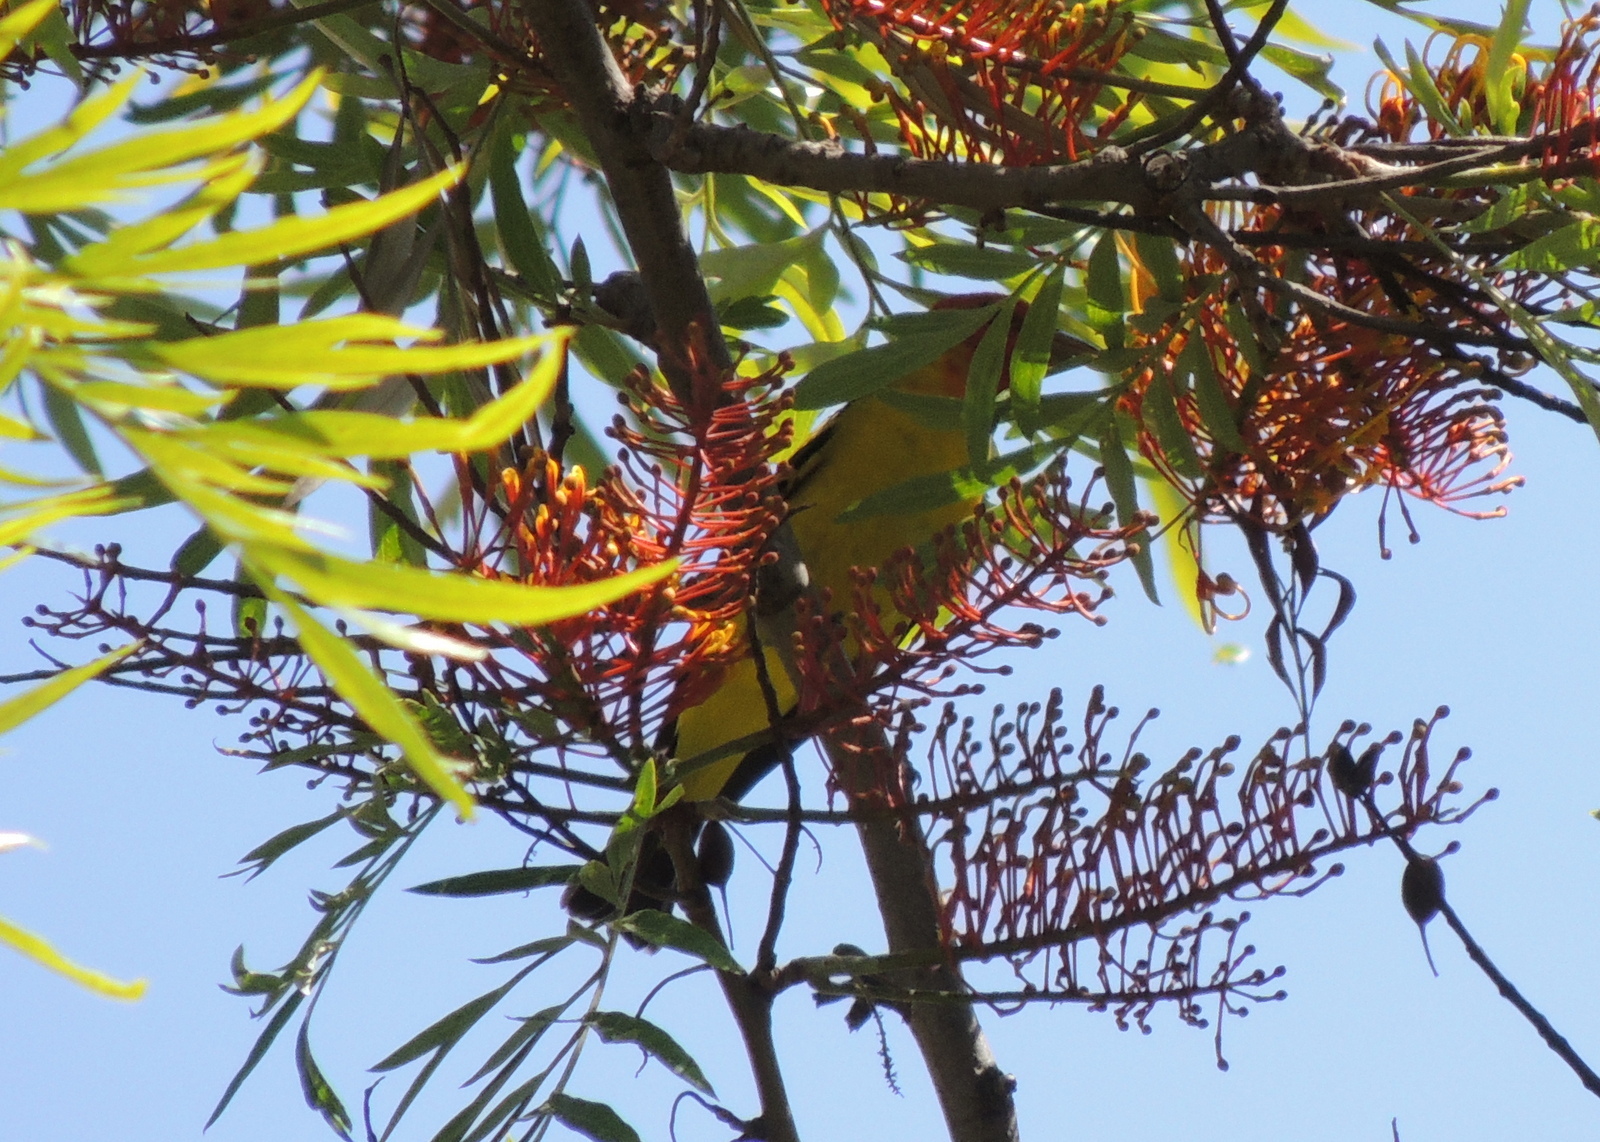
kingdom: Animalia
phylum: Chordata
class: Aves
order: Passeriformes
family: Cardinalidae
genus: Piranga
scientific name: Piranga ludoviciana
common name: Western tanager
